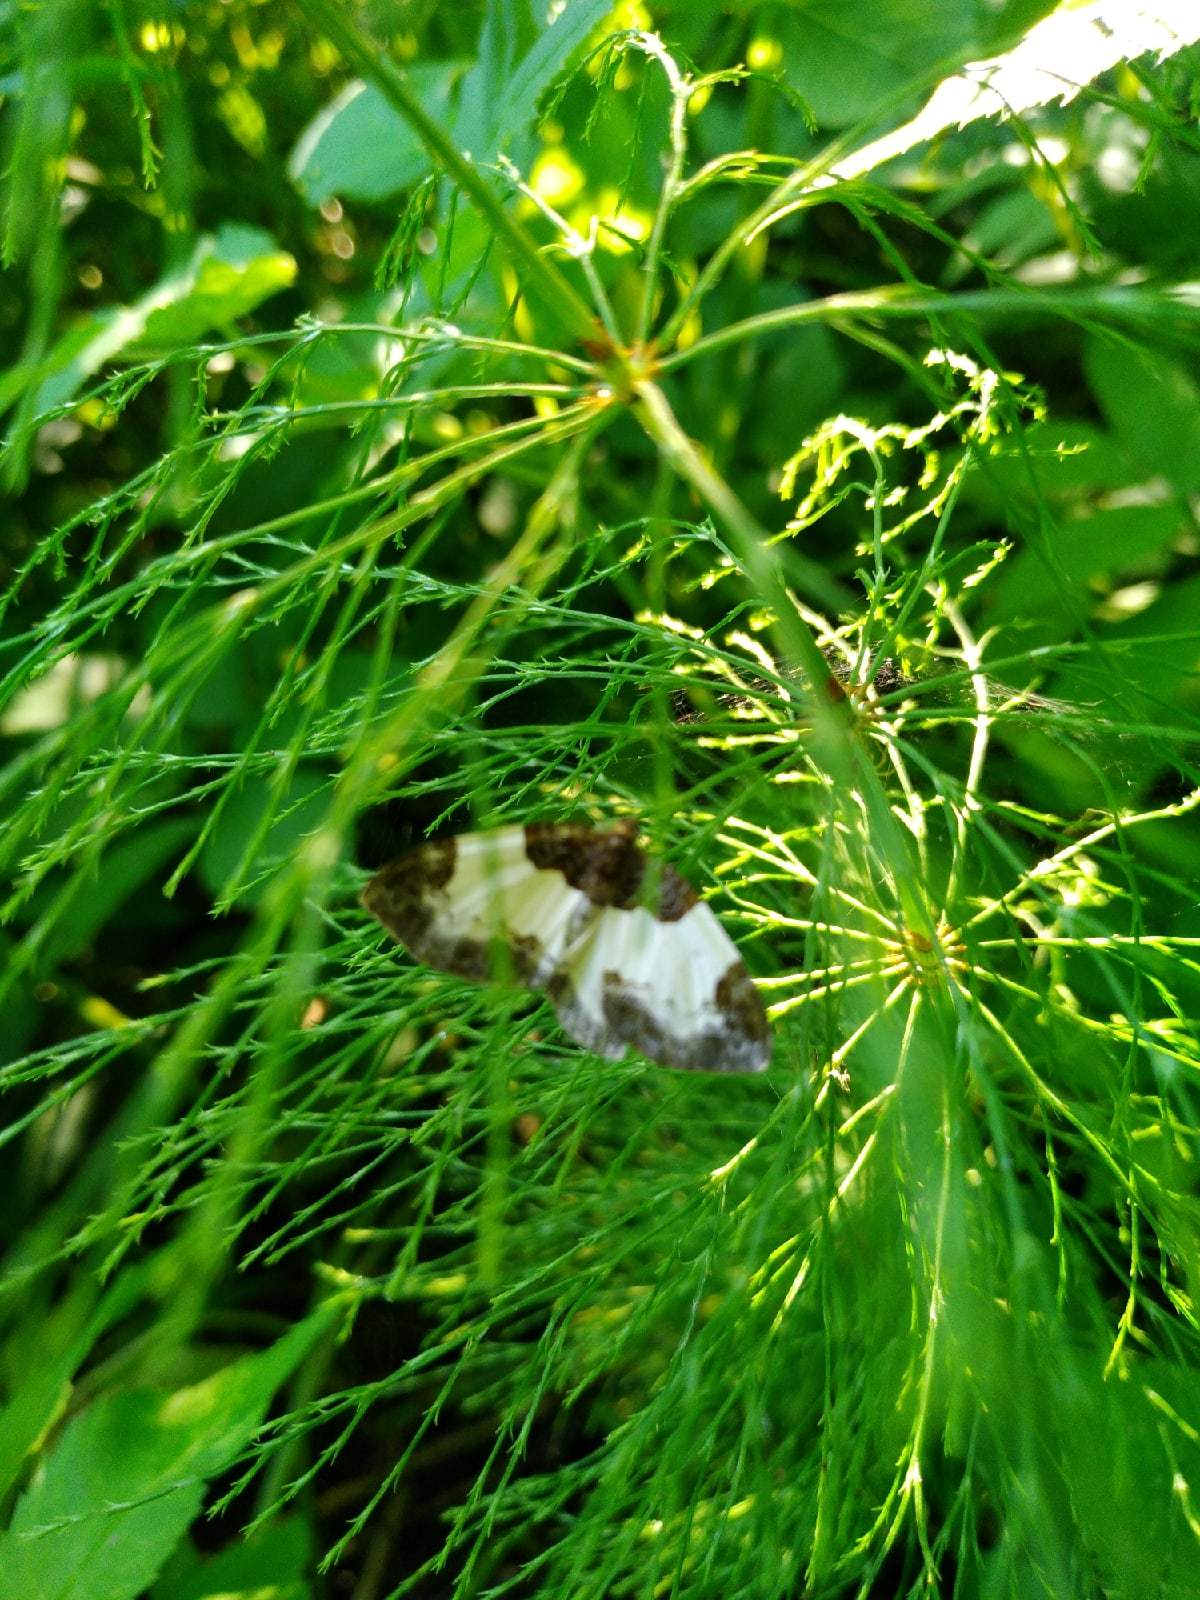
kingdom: Animalia
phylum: Arthropoda
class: Insecta
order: Lepidoptera
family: Geometridae
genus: Mesoleuca
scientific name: Mesoleuca albicillata
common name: Beautiful carpet
